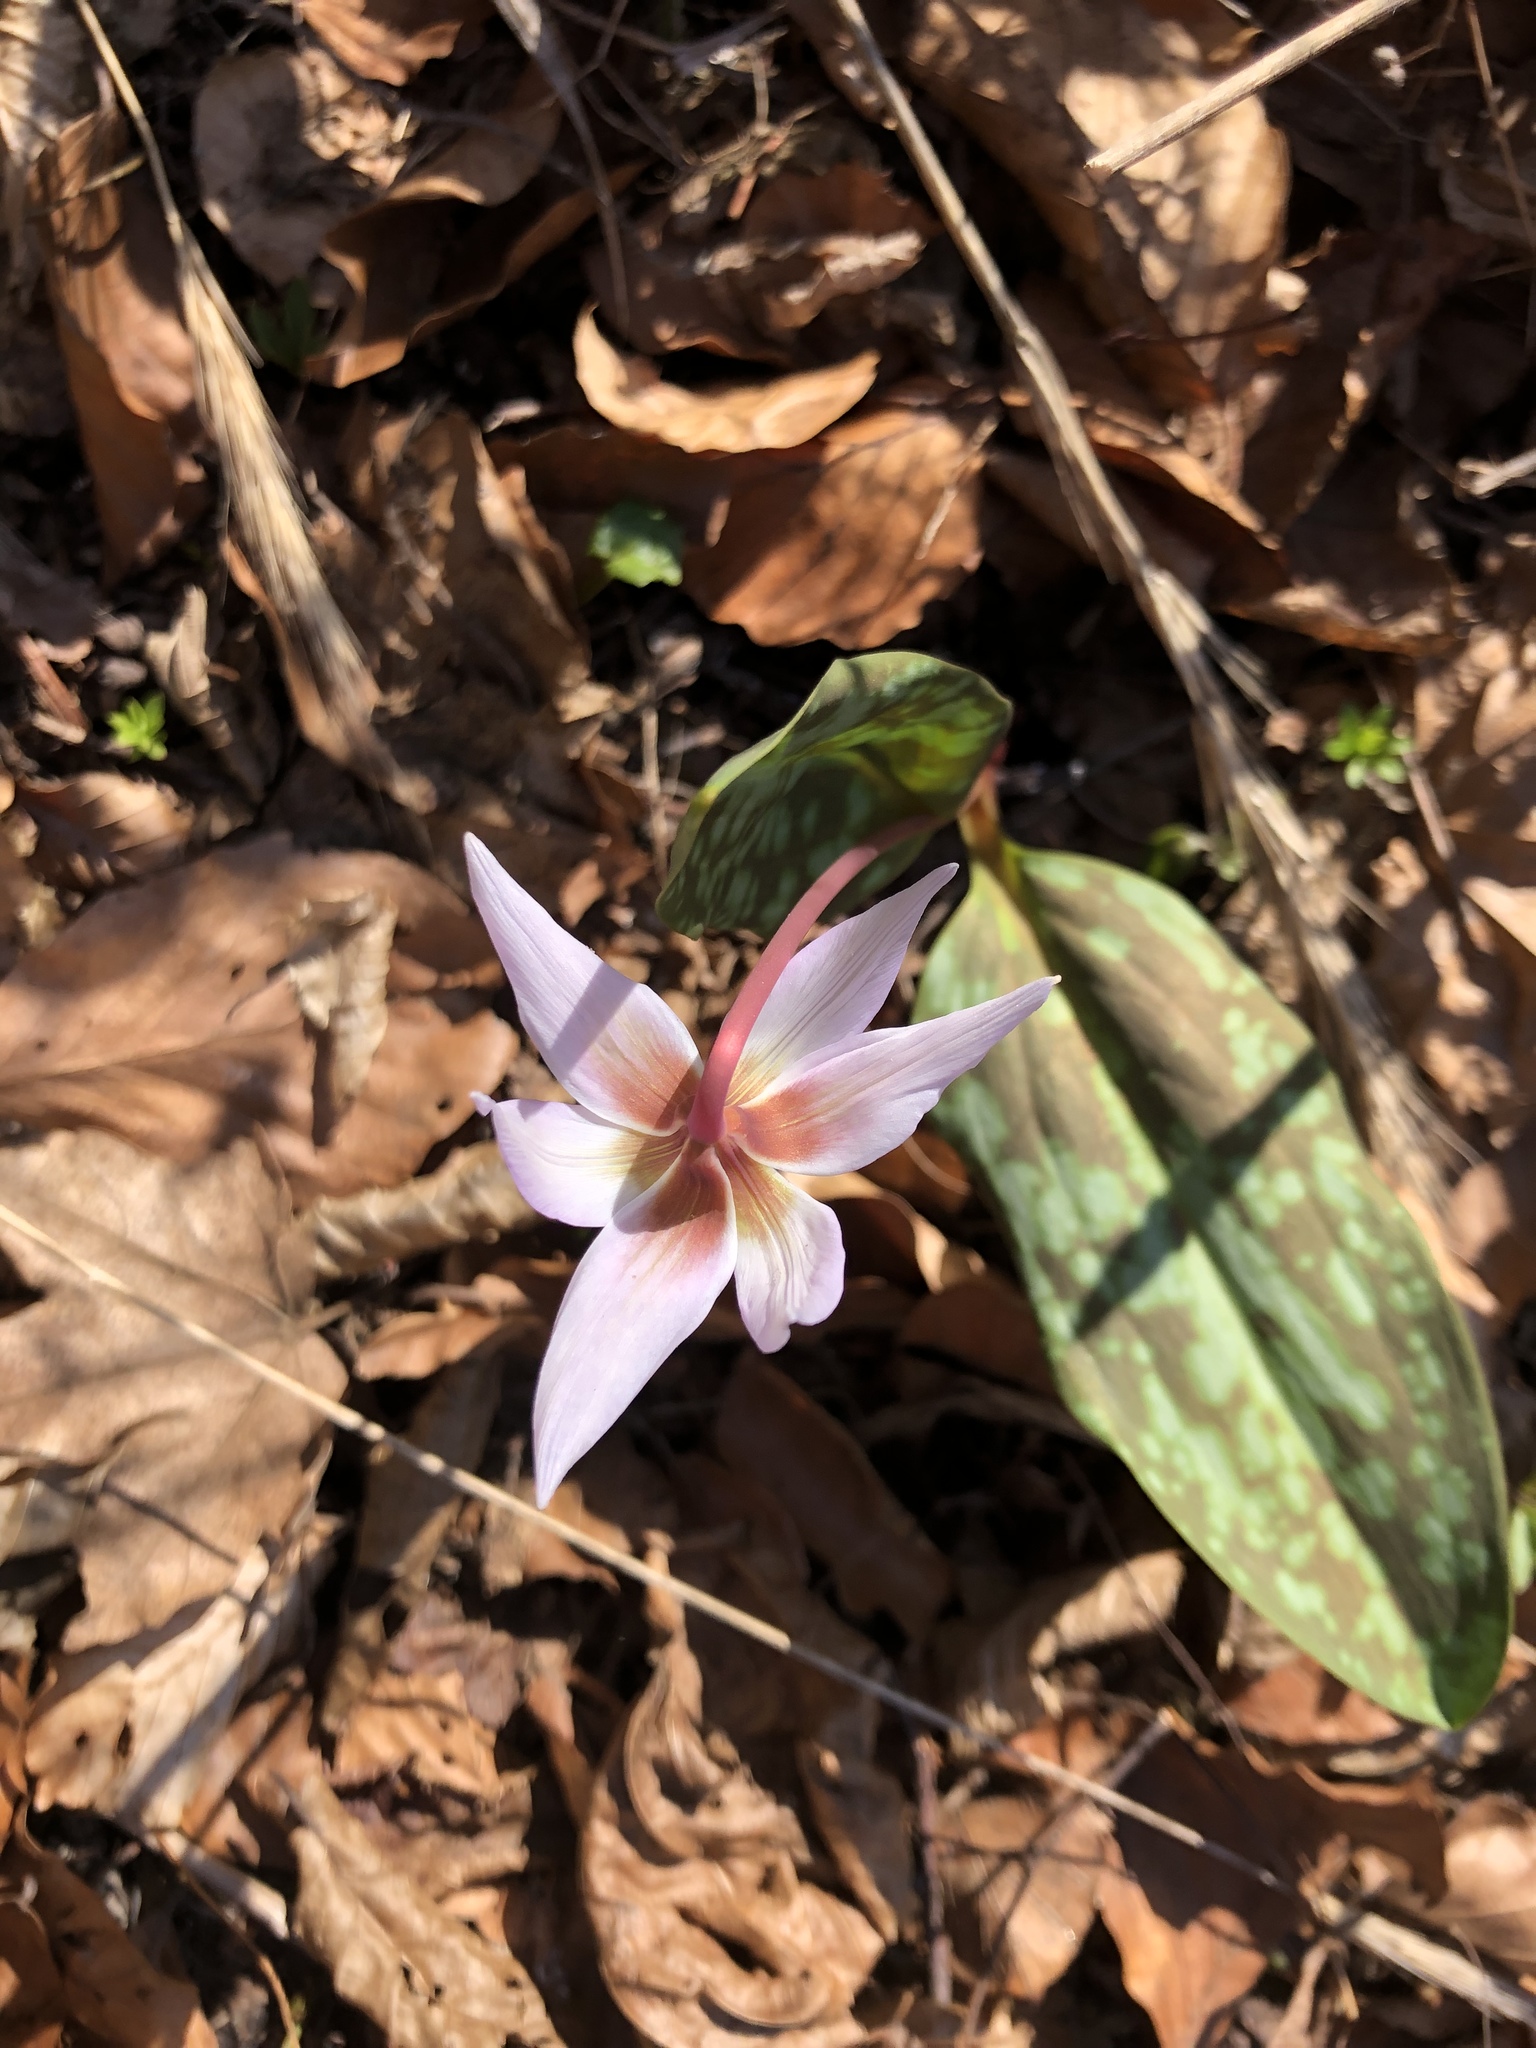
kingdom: Plantae
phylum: Tracheophyta
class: Liliopsida
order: Liliales
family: Liliaceae
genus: Erythronium
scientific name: Erythronium dens-canis
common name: Dog's-tooth-violet
